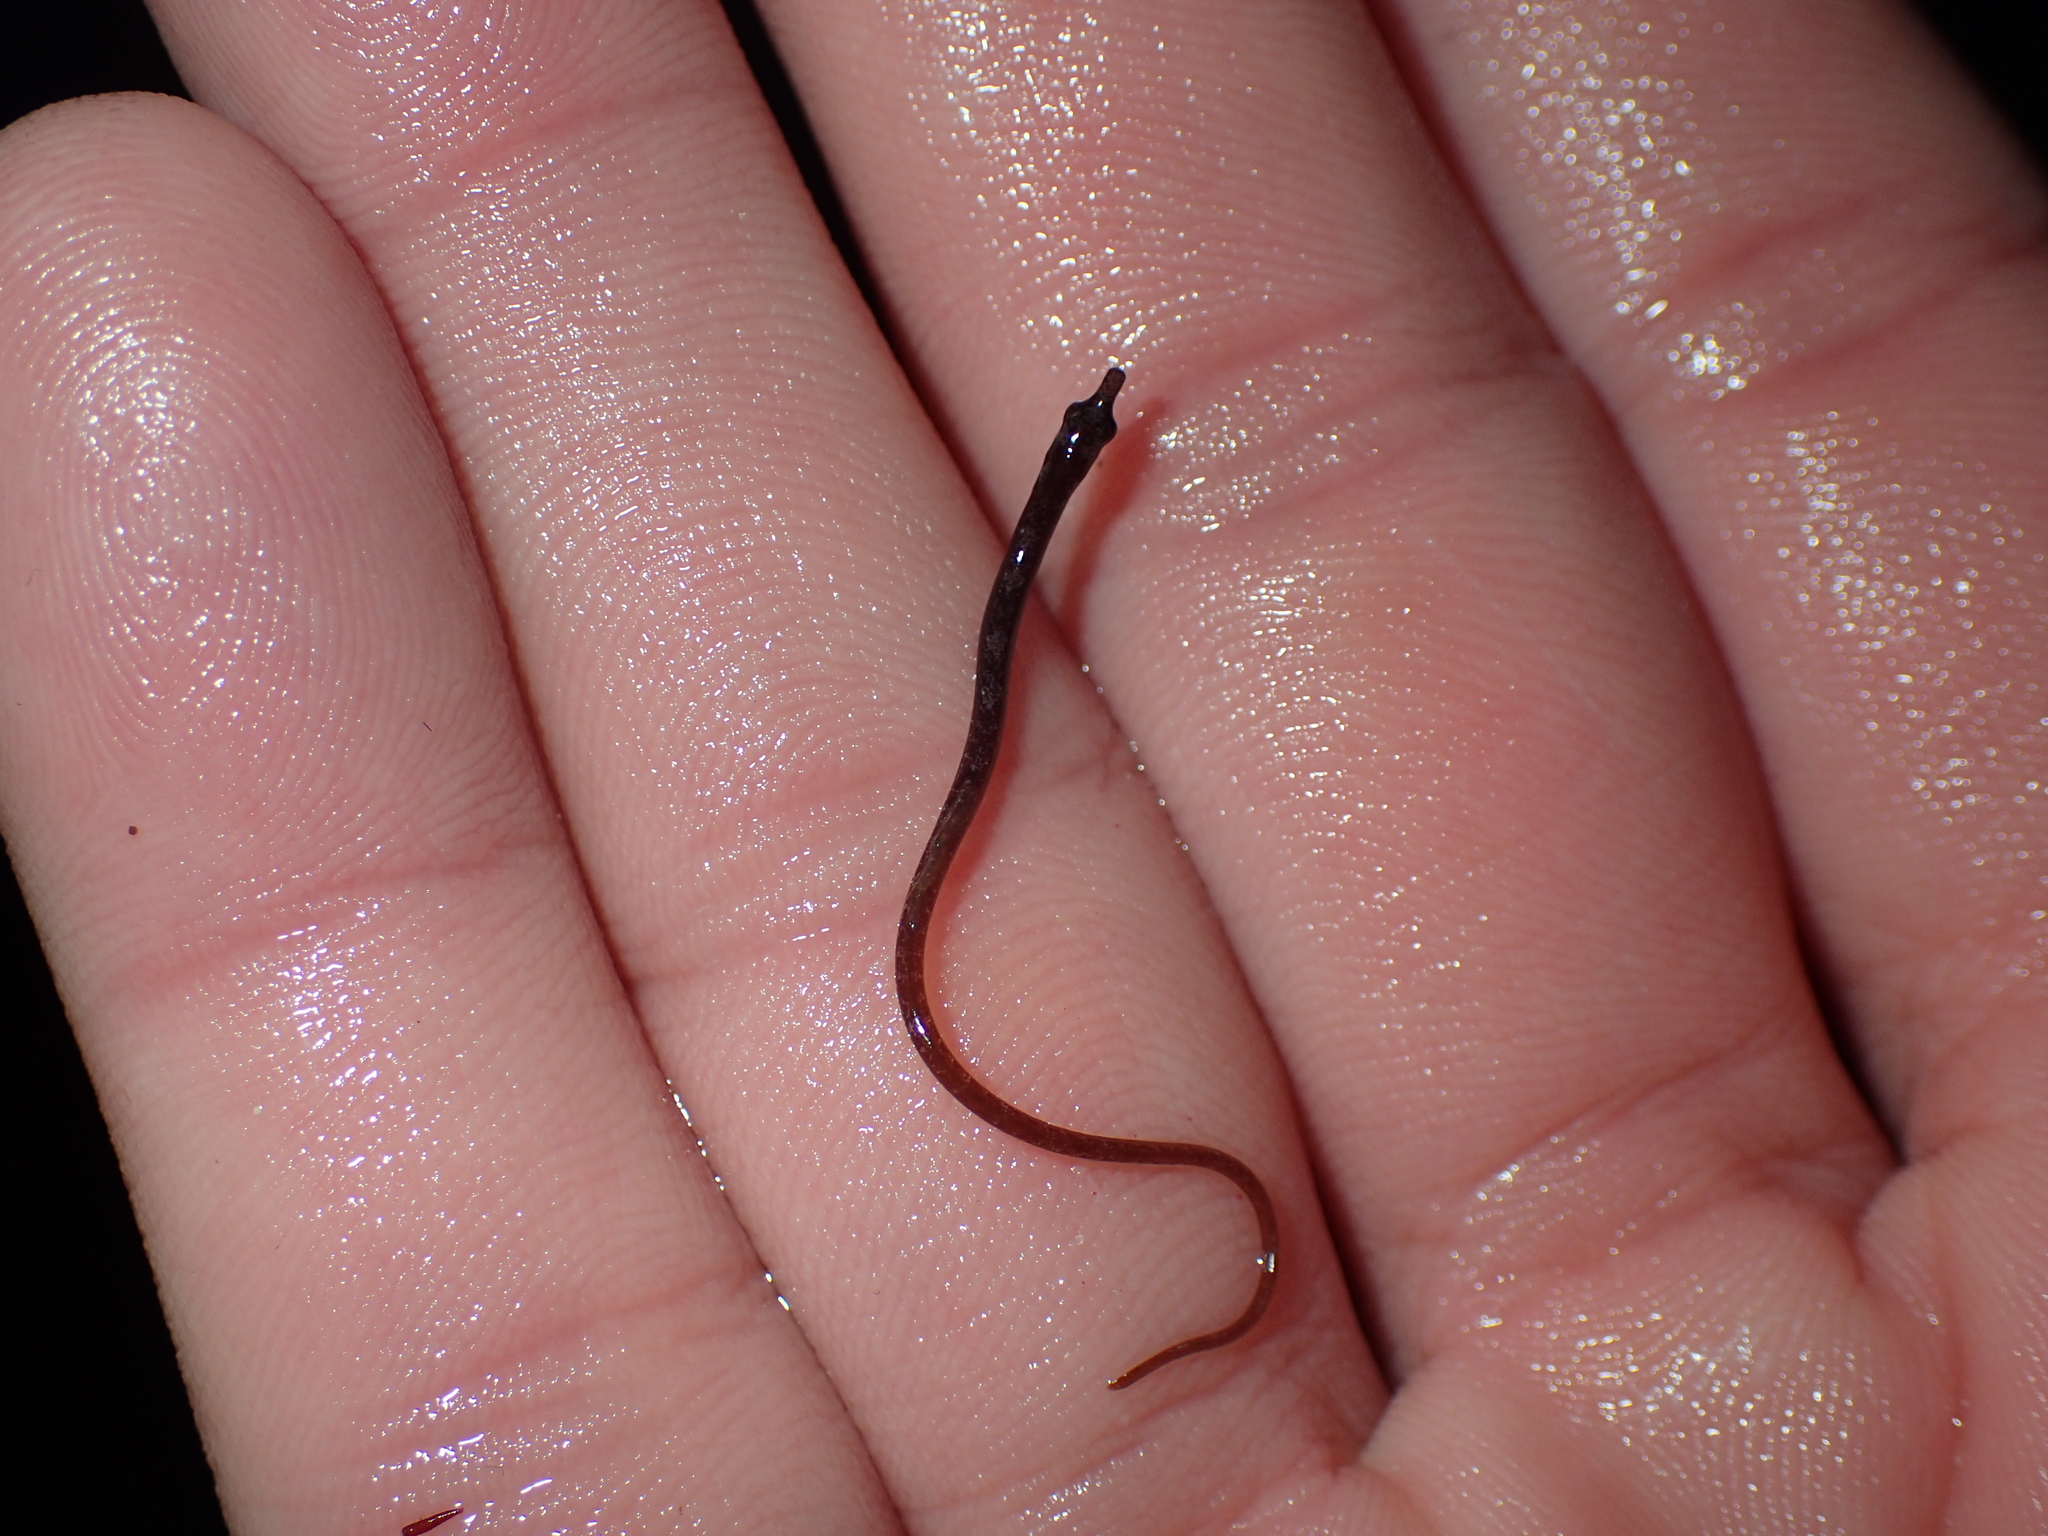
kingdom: Animalia
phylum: Chordata
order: Syngnathiformes
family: Syngnathidae
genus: Nerophis
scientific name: Nerophis lumbriciformis
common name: Worm pipefish
